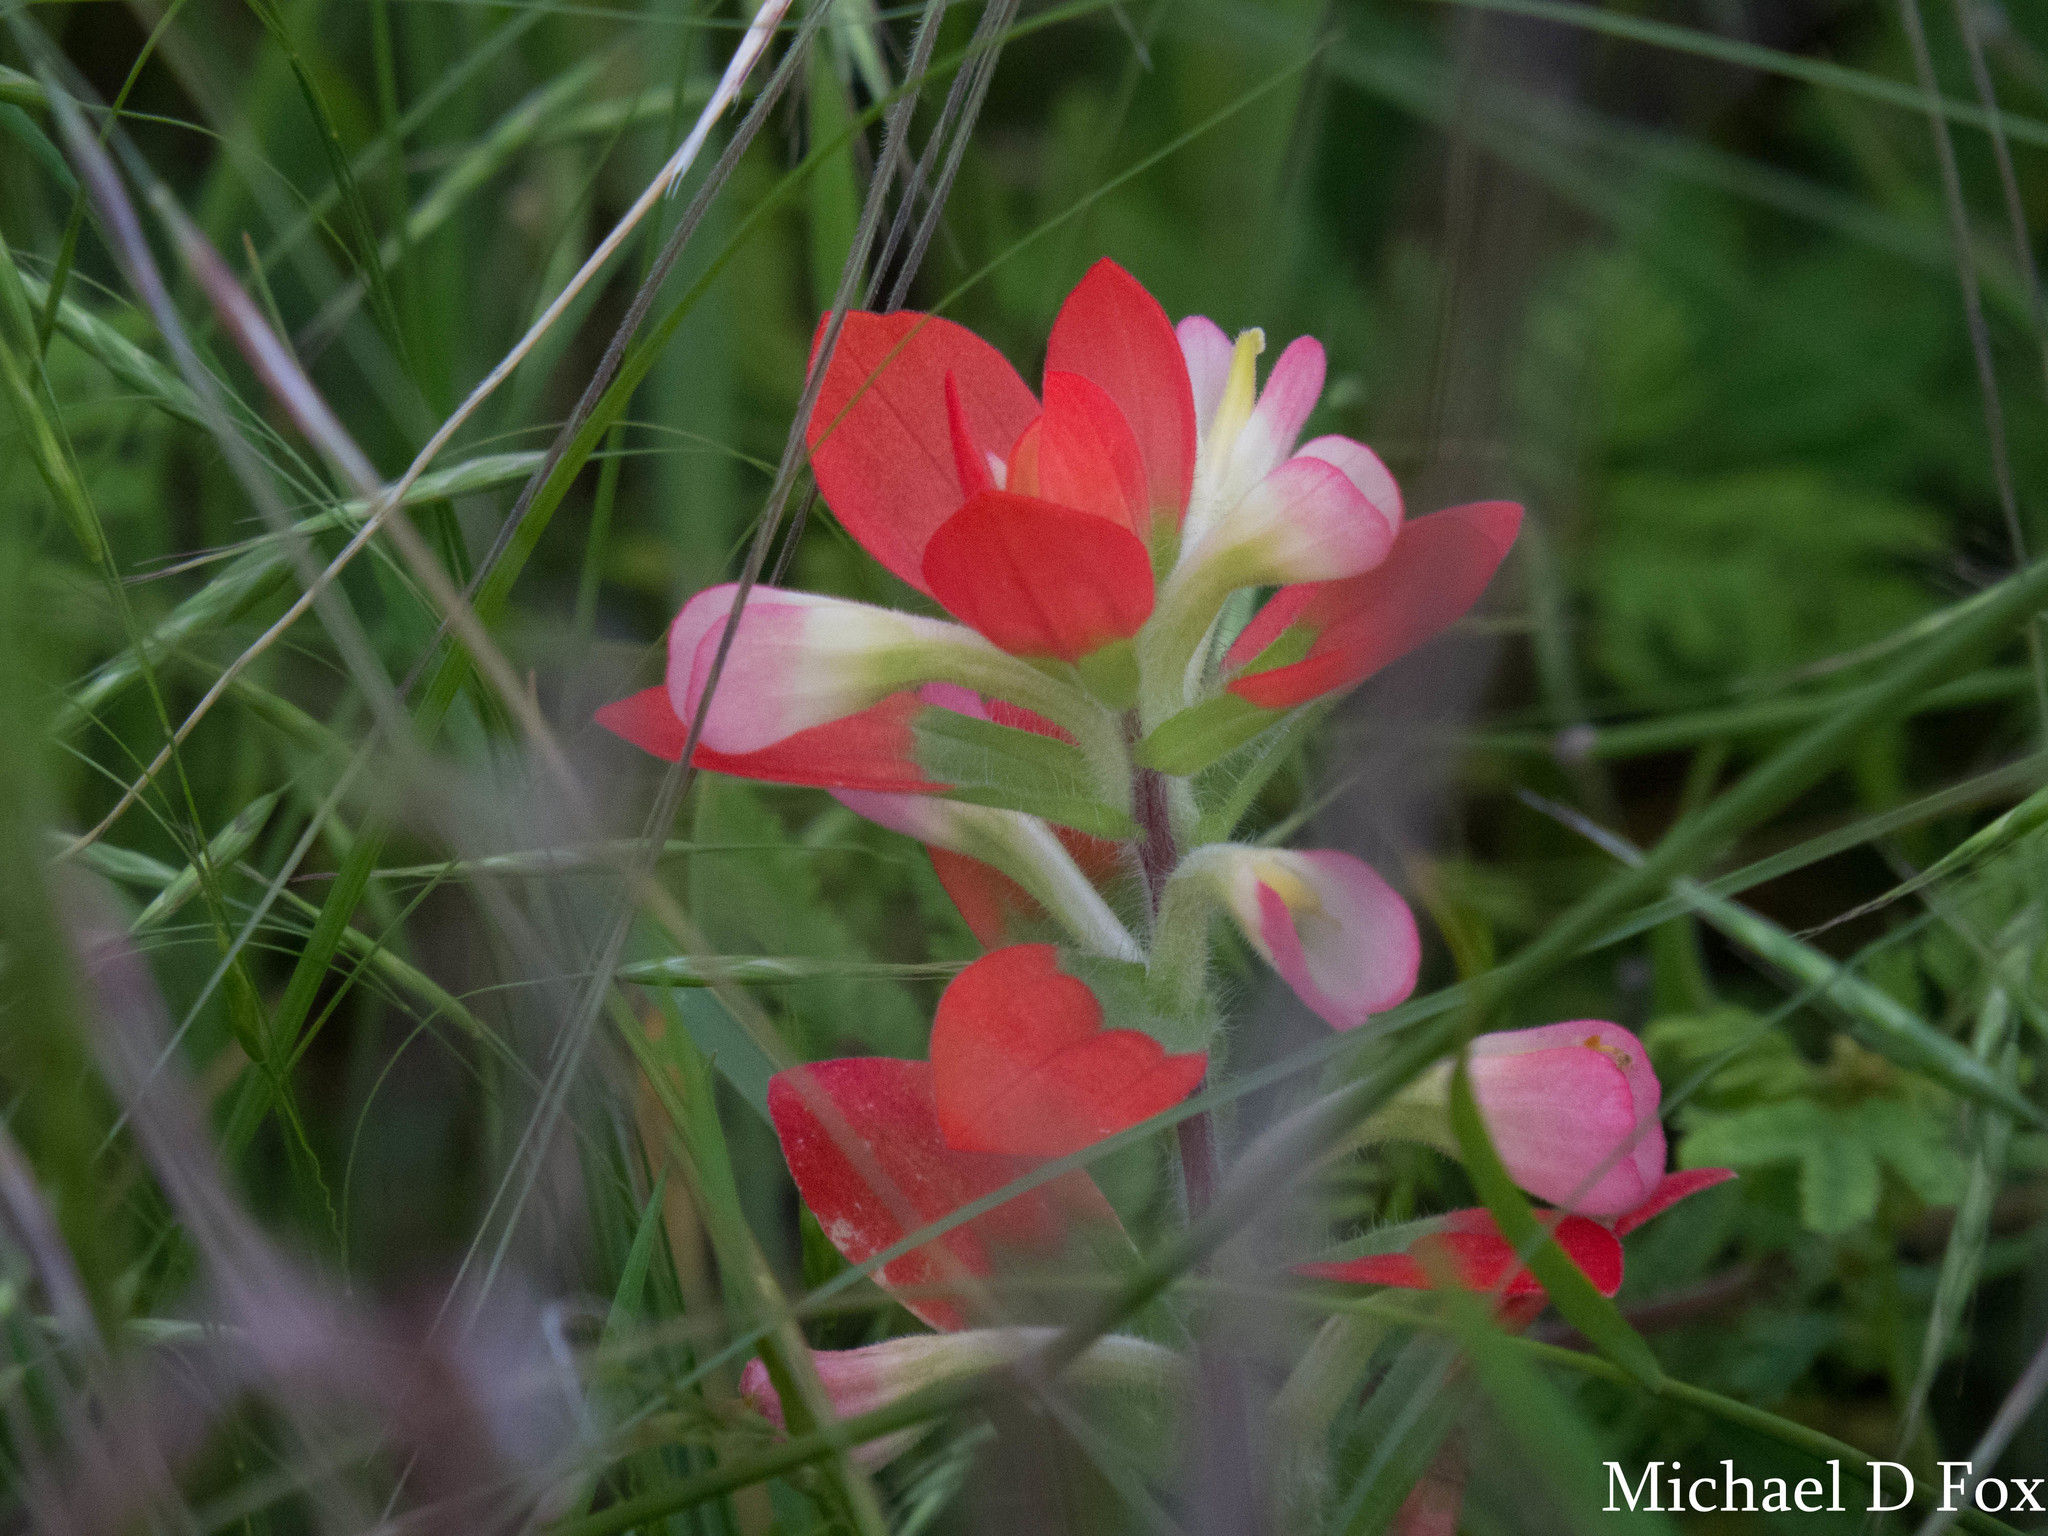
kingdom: Plantae
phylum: Tracheophyta
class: Magnoliopsida
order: Lamiales
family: Orobanchaceae
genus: Castilleja
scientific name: Castilleja indivisa
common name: Texas paintbrush
